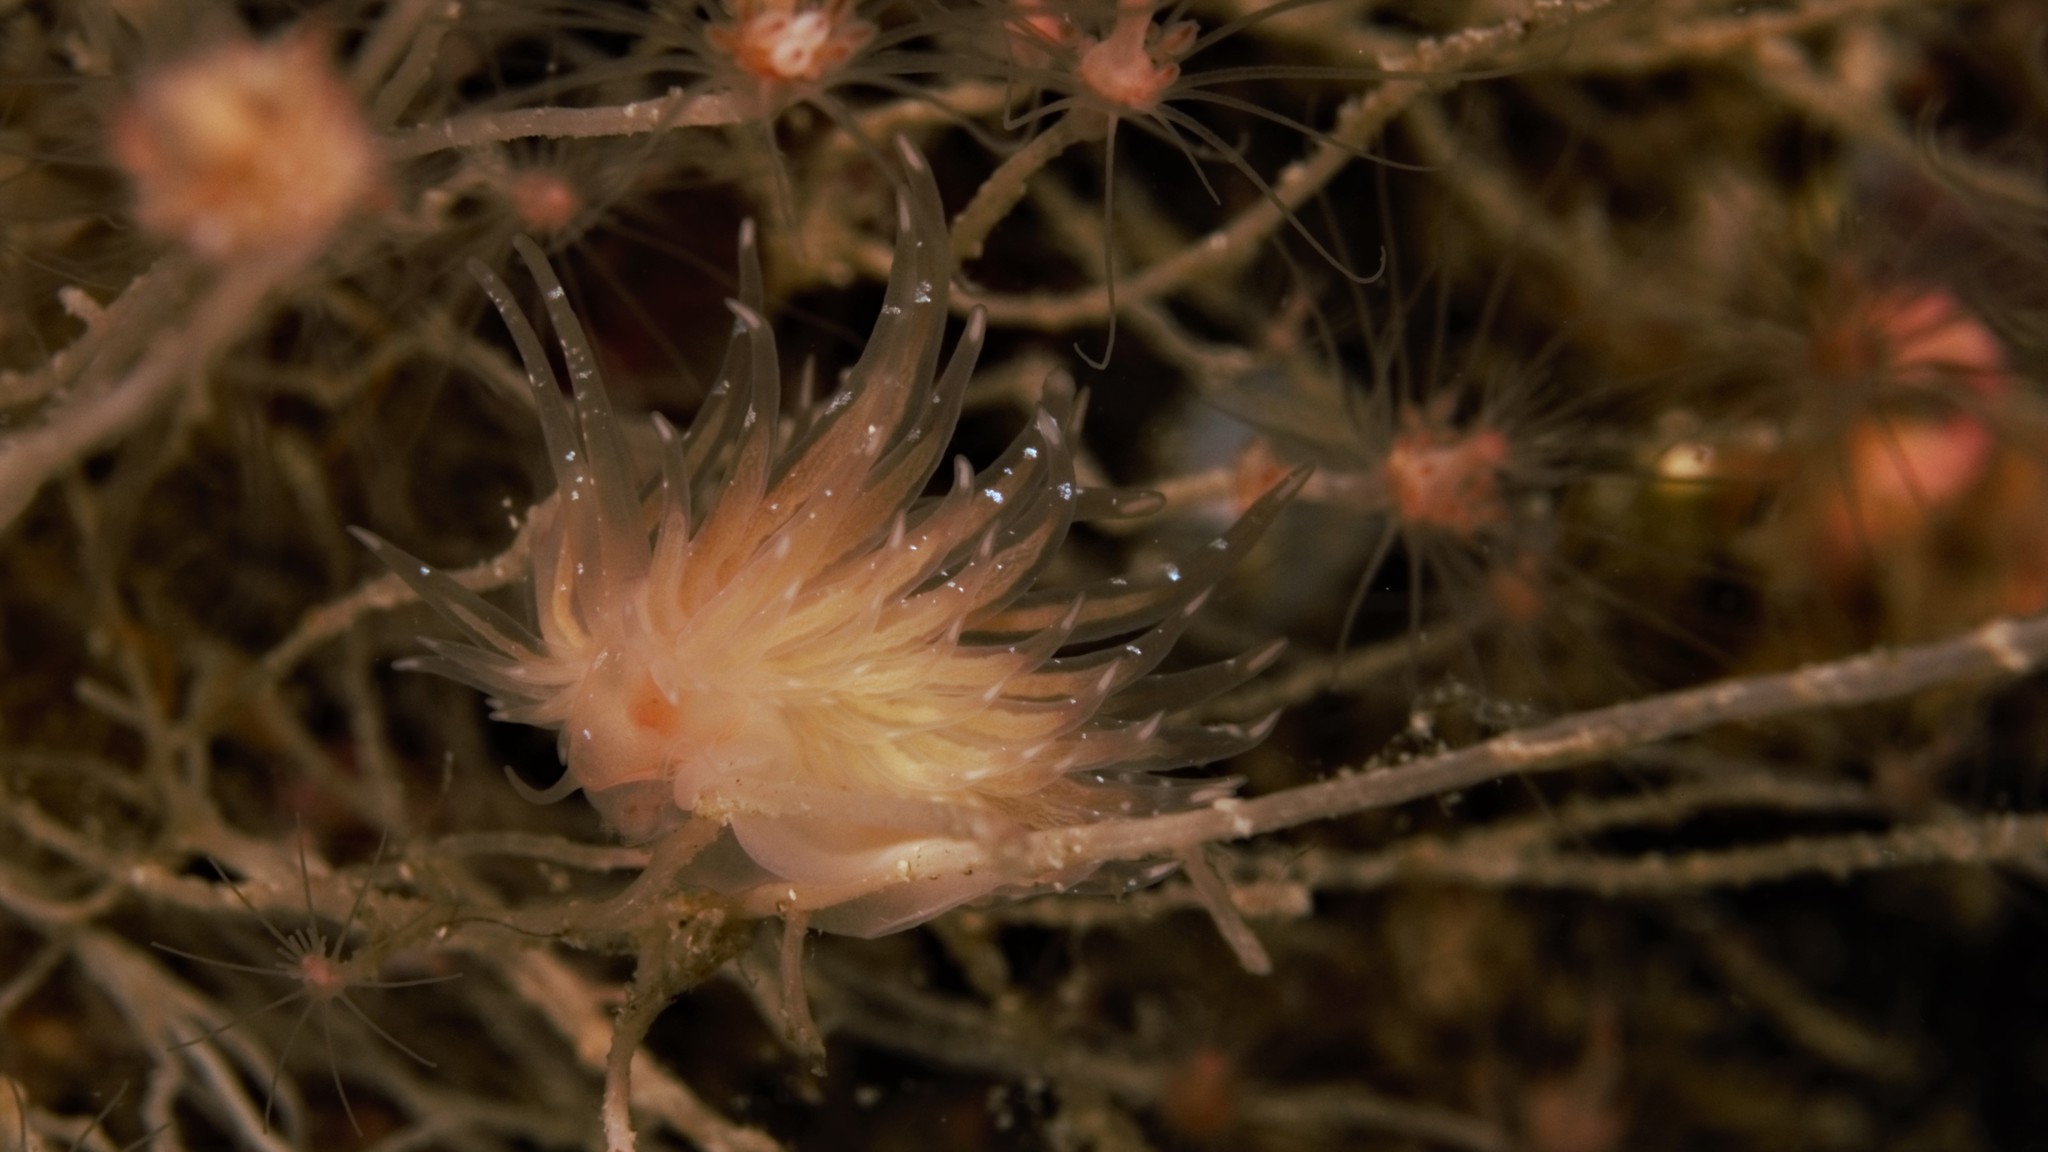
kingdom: Animalia
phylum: Mollusca
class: Gastropoda
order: Nudibranchia
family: Cumanotidae
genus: Cumanotus
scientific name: Cumanotus beaumonti
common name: Polyp aeolis
